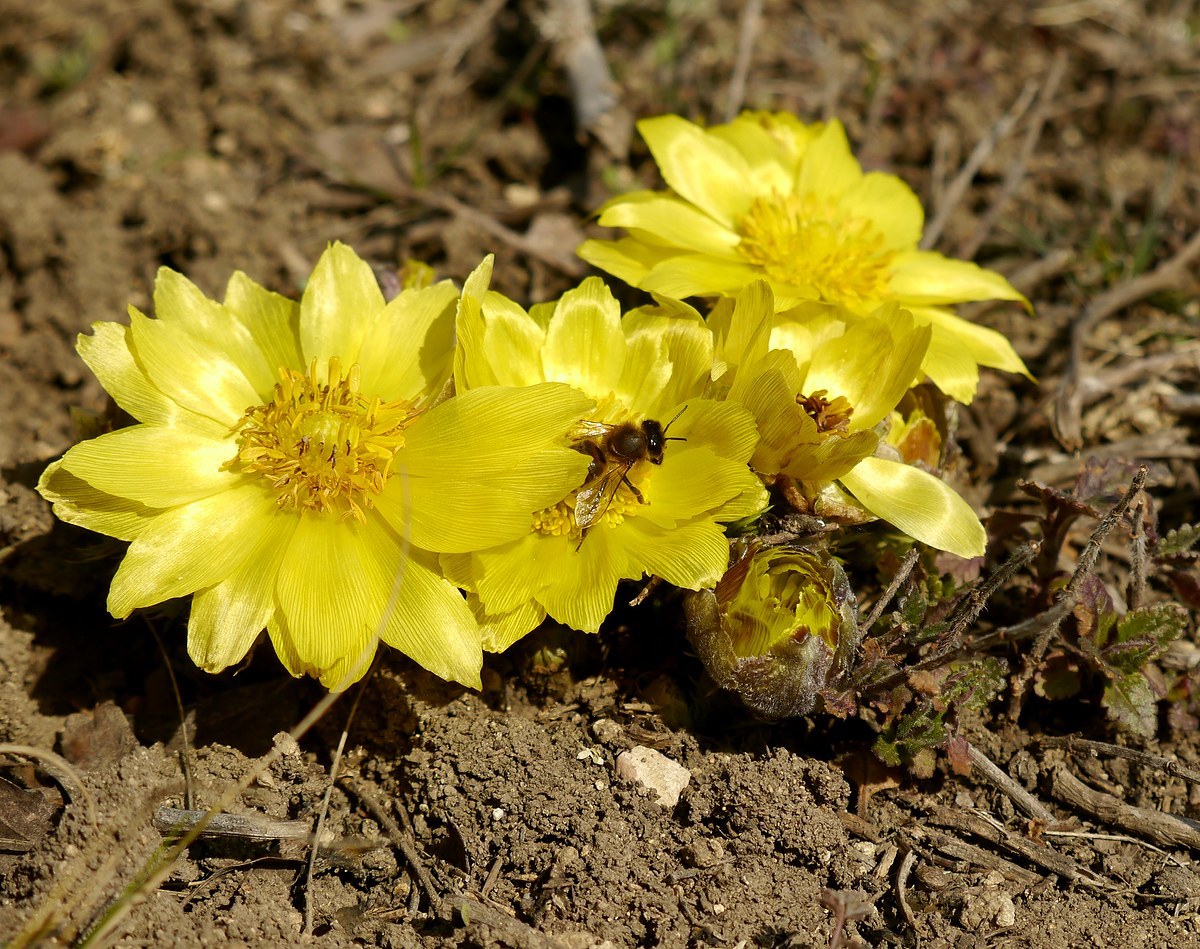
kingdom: Plantae
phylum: Tracheophyta
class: Magnoliopsida
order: Ranunculales
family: Ranunculaceae
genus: Adonis
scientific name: Adonis vernalis
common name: Yellow pheasants-eye
